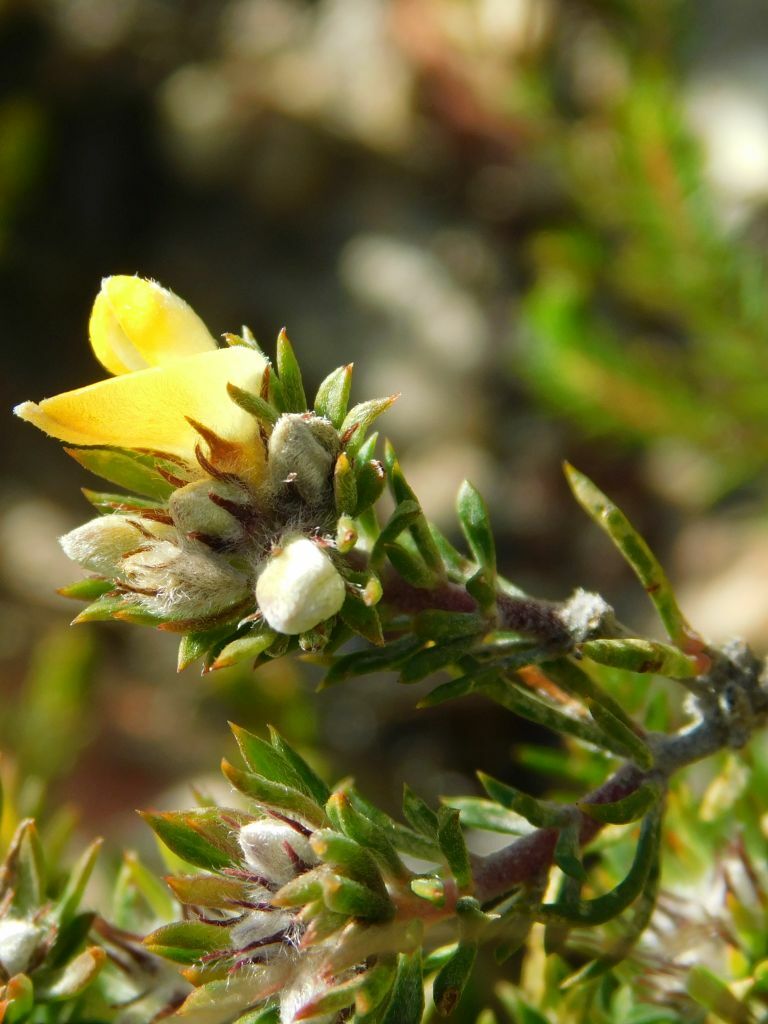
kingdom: Plantae
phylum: Tracheophyta
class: Magnoliopsida
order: Fabales
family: Fabaceae
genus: Aspalathus
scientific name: Aspalathus stenophylla
